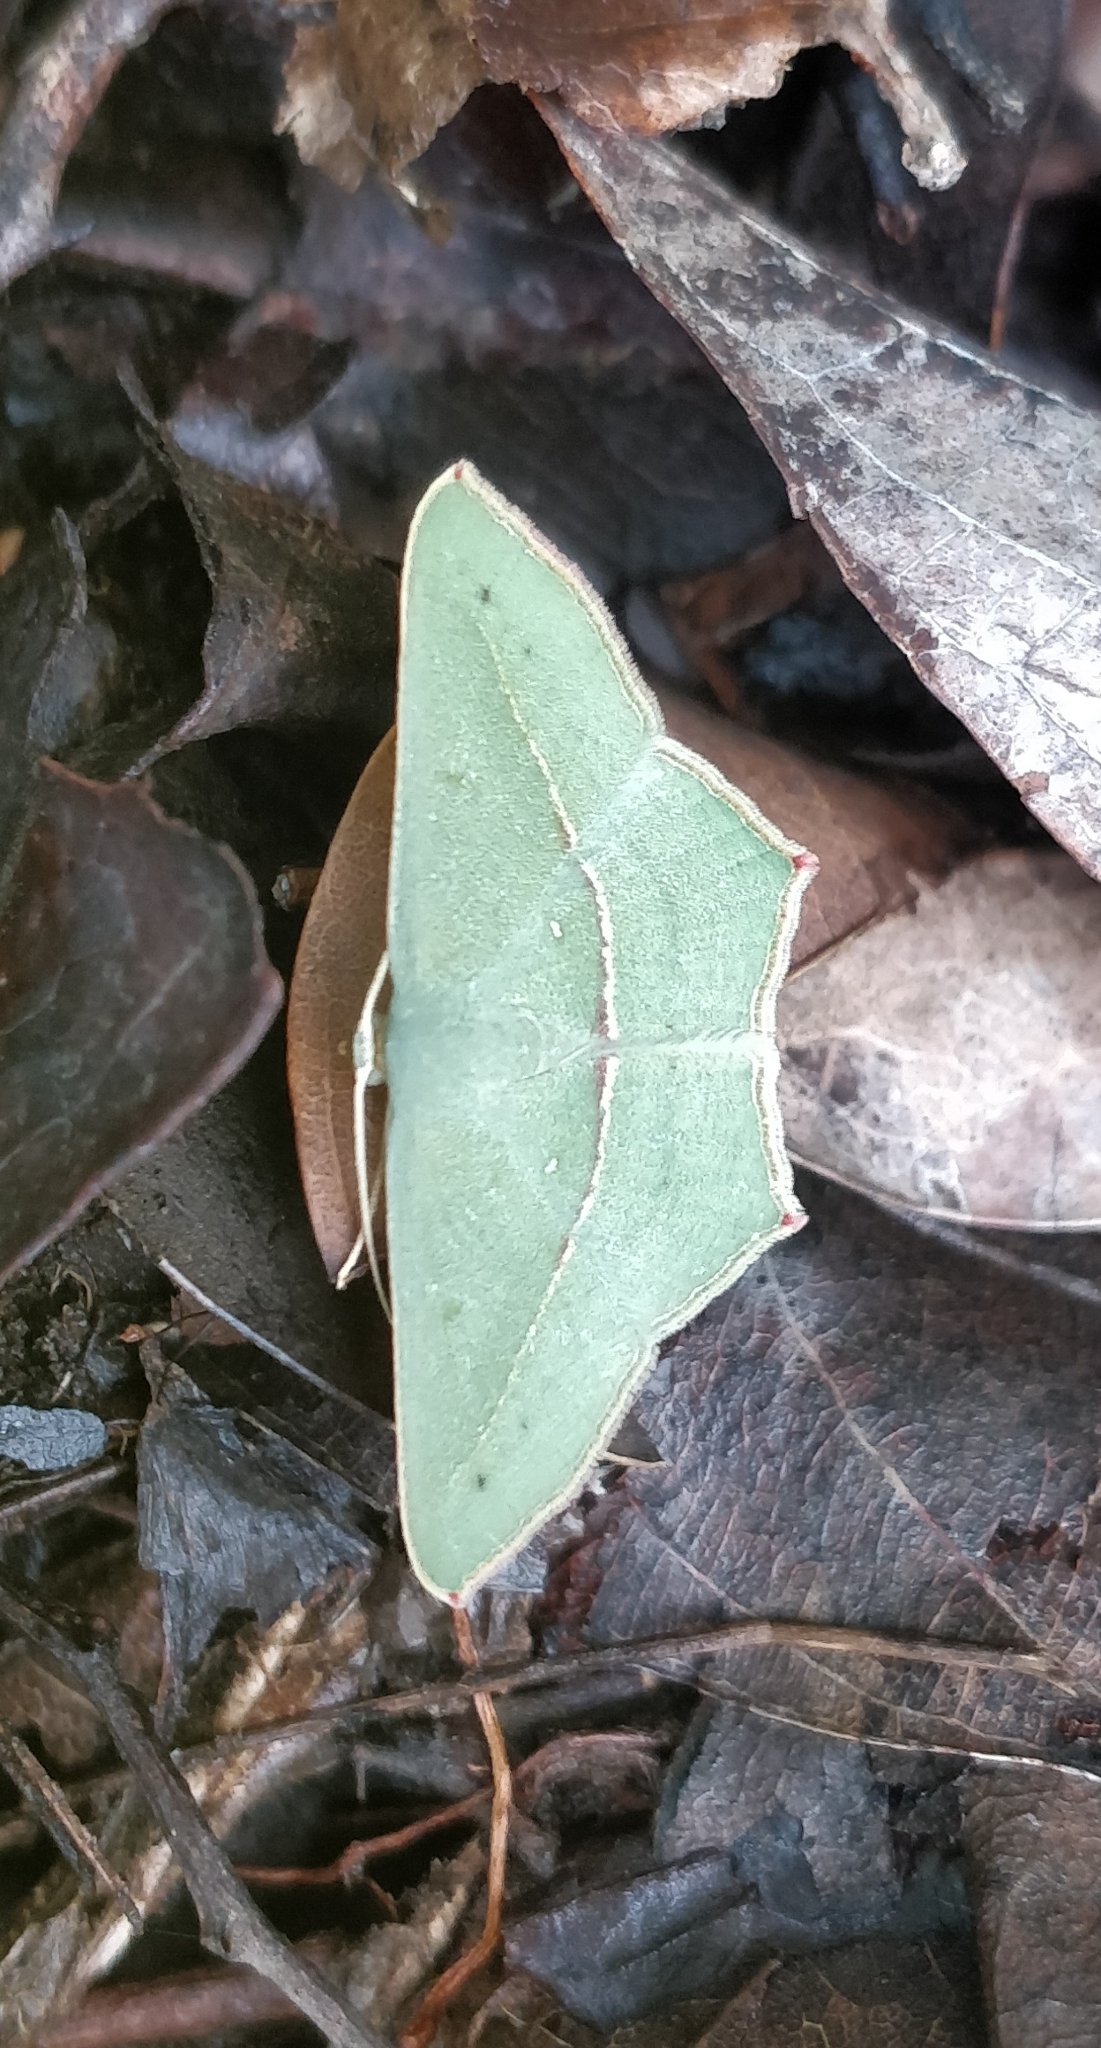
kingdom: Animalia
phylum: Arthropoda
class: Insecta
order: Lepidoptera
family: Geometridae
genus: Traminda
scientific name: Traminda mundissima
